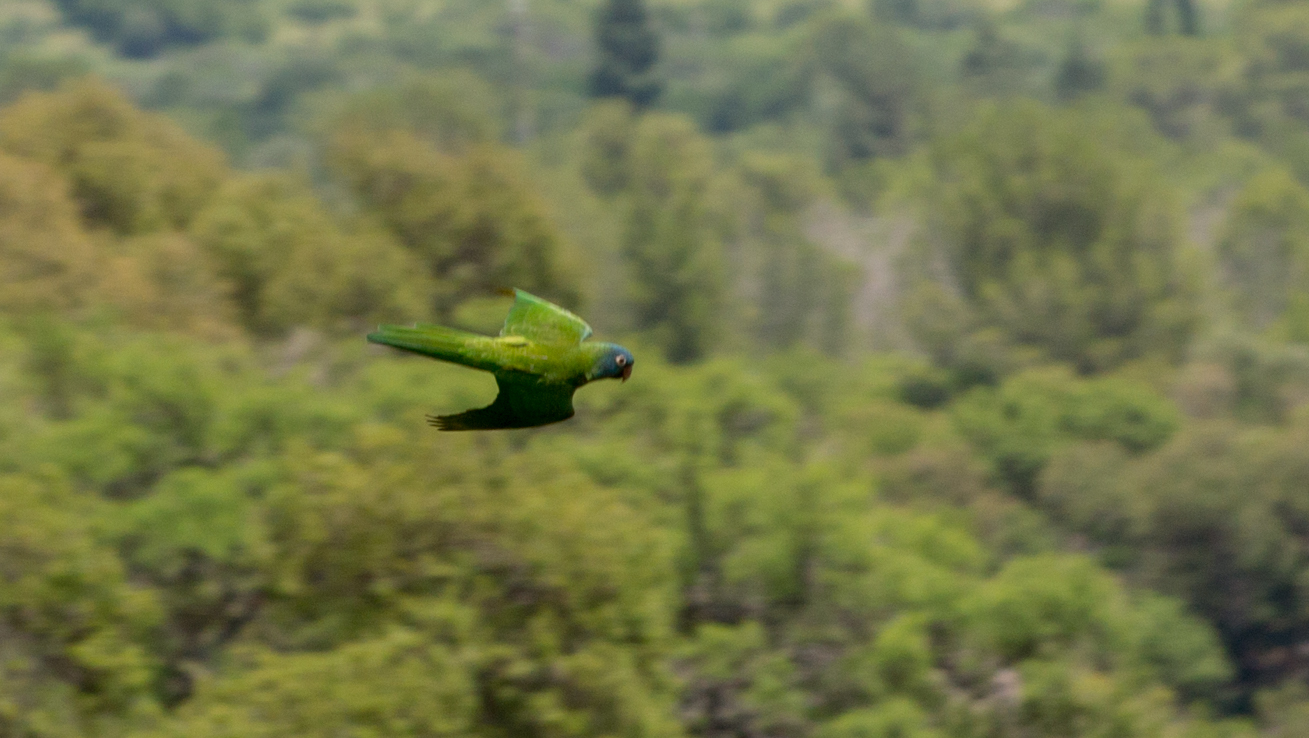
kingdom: Animalia
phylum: Chordata
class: Aves
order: Psittaciformes
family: Psittacidae
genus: Aratinga
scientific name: Aratinga acuticaudata
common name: Blue-crowned parakeet
